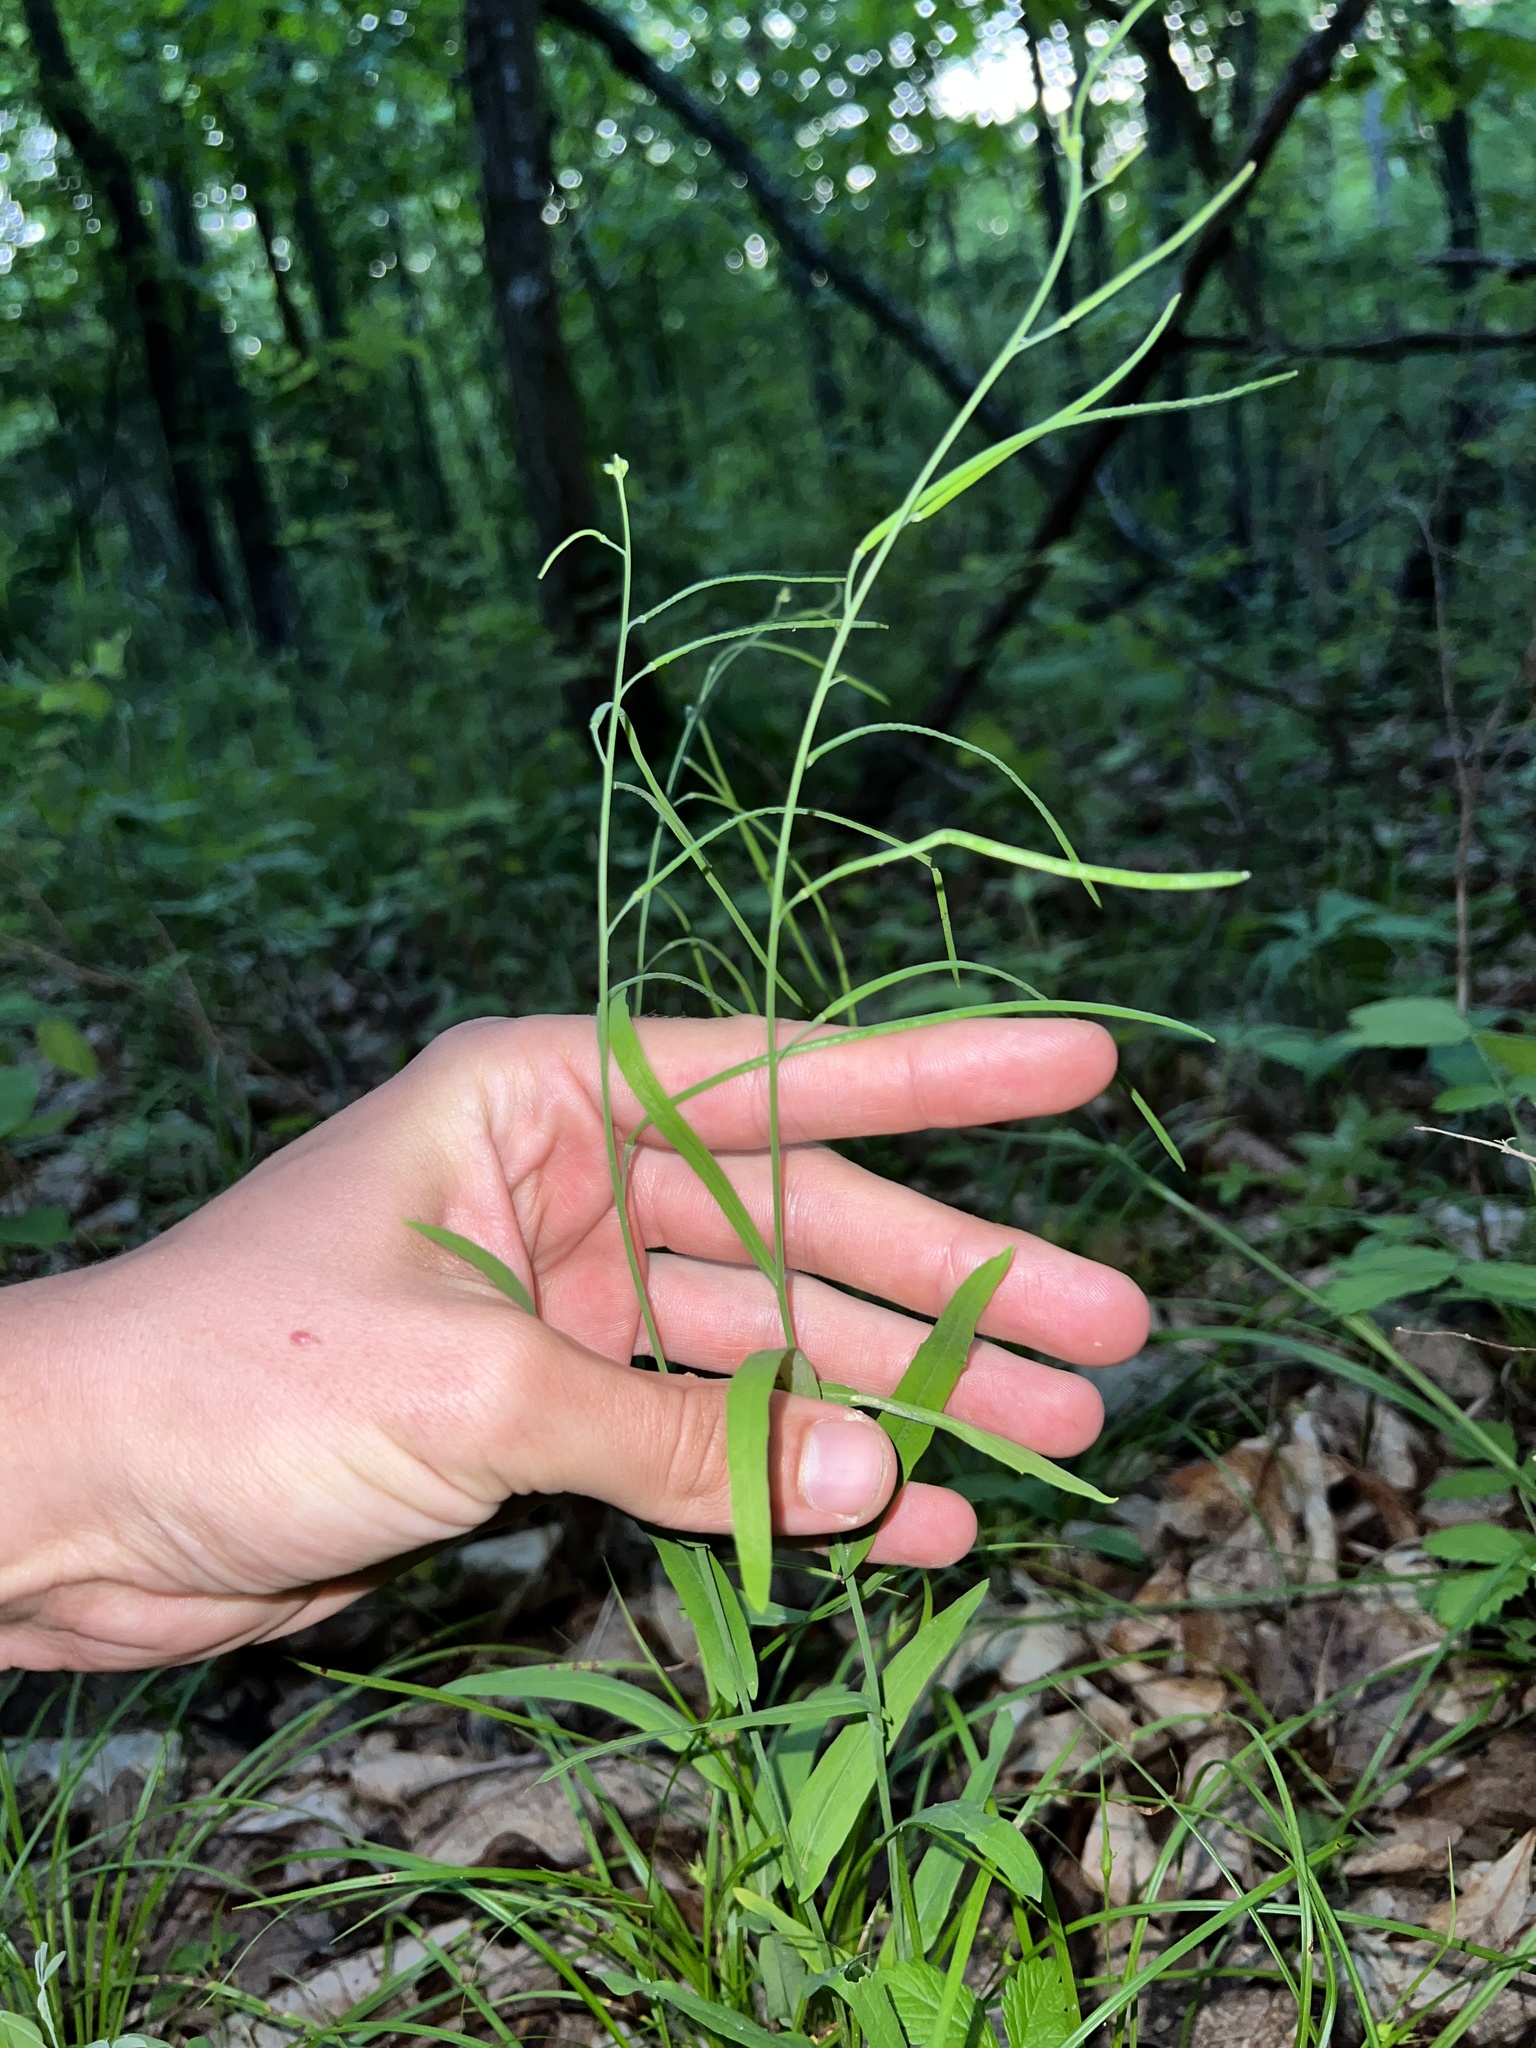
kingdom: Plantae
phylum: Tracheophyta
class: Magnoliopsida
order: Brassicales
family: Brassicaceae
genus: Borodinia
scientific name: Borodinia laevigata
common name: Smooth rockcress
